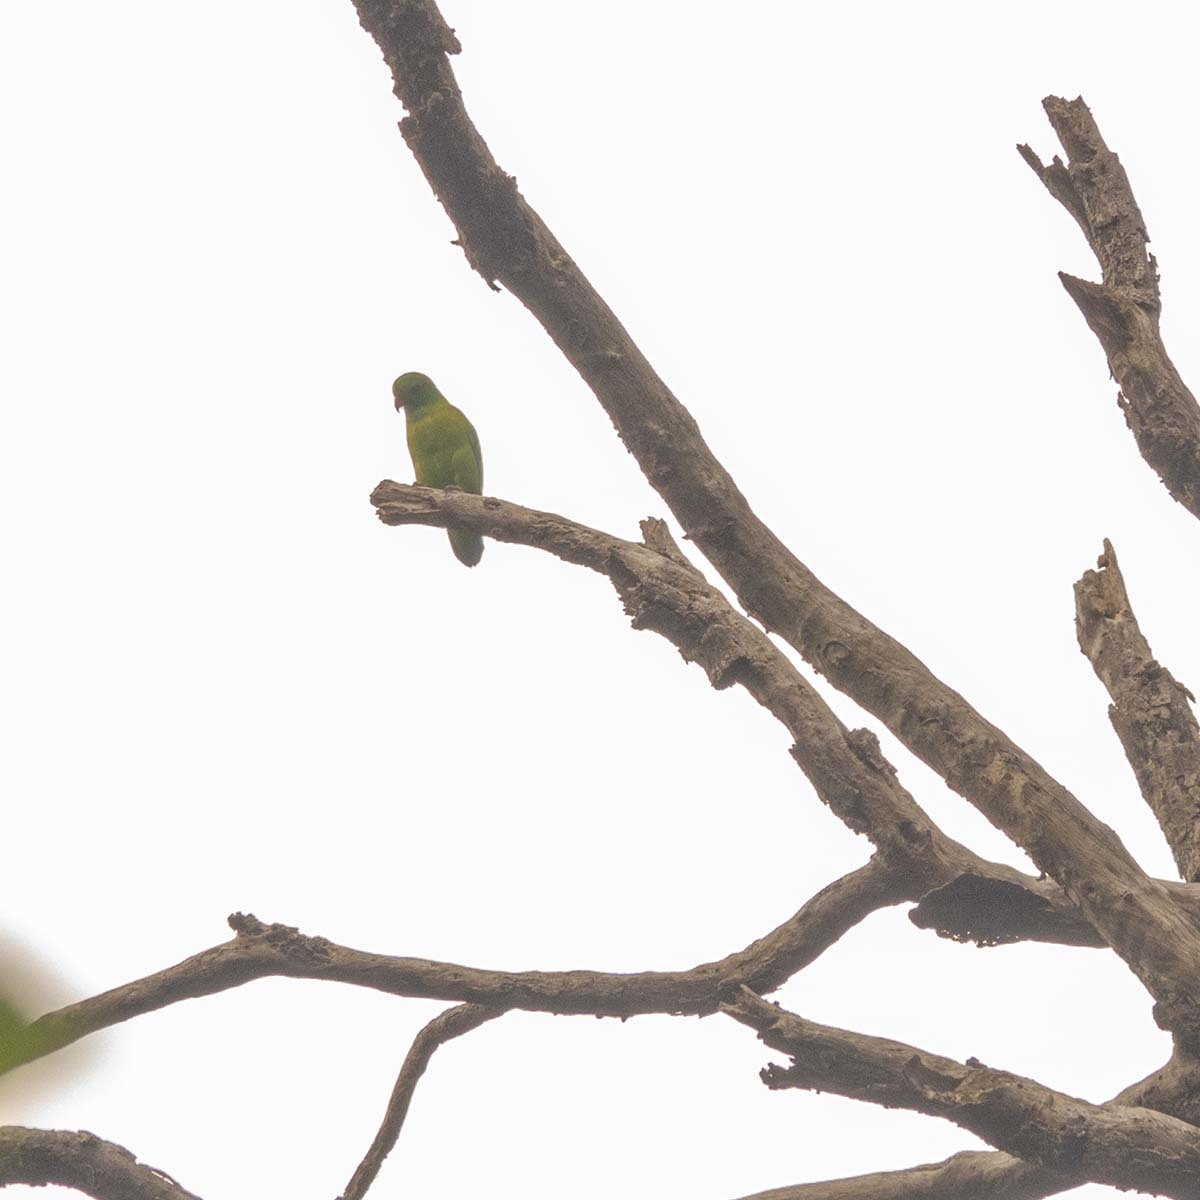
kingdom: Animalia
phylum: Chordata
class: Aves
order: Psittaciformes
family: Psittacidae
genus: Loriculus
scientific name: Loriculus vernalis
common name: Vernal hanging parrot
